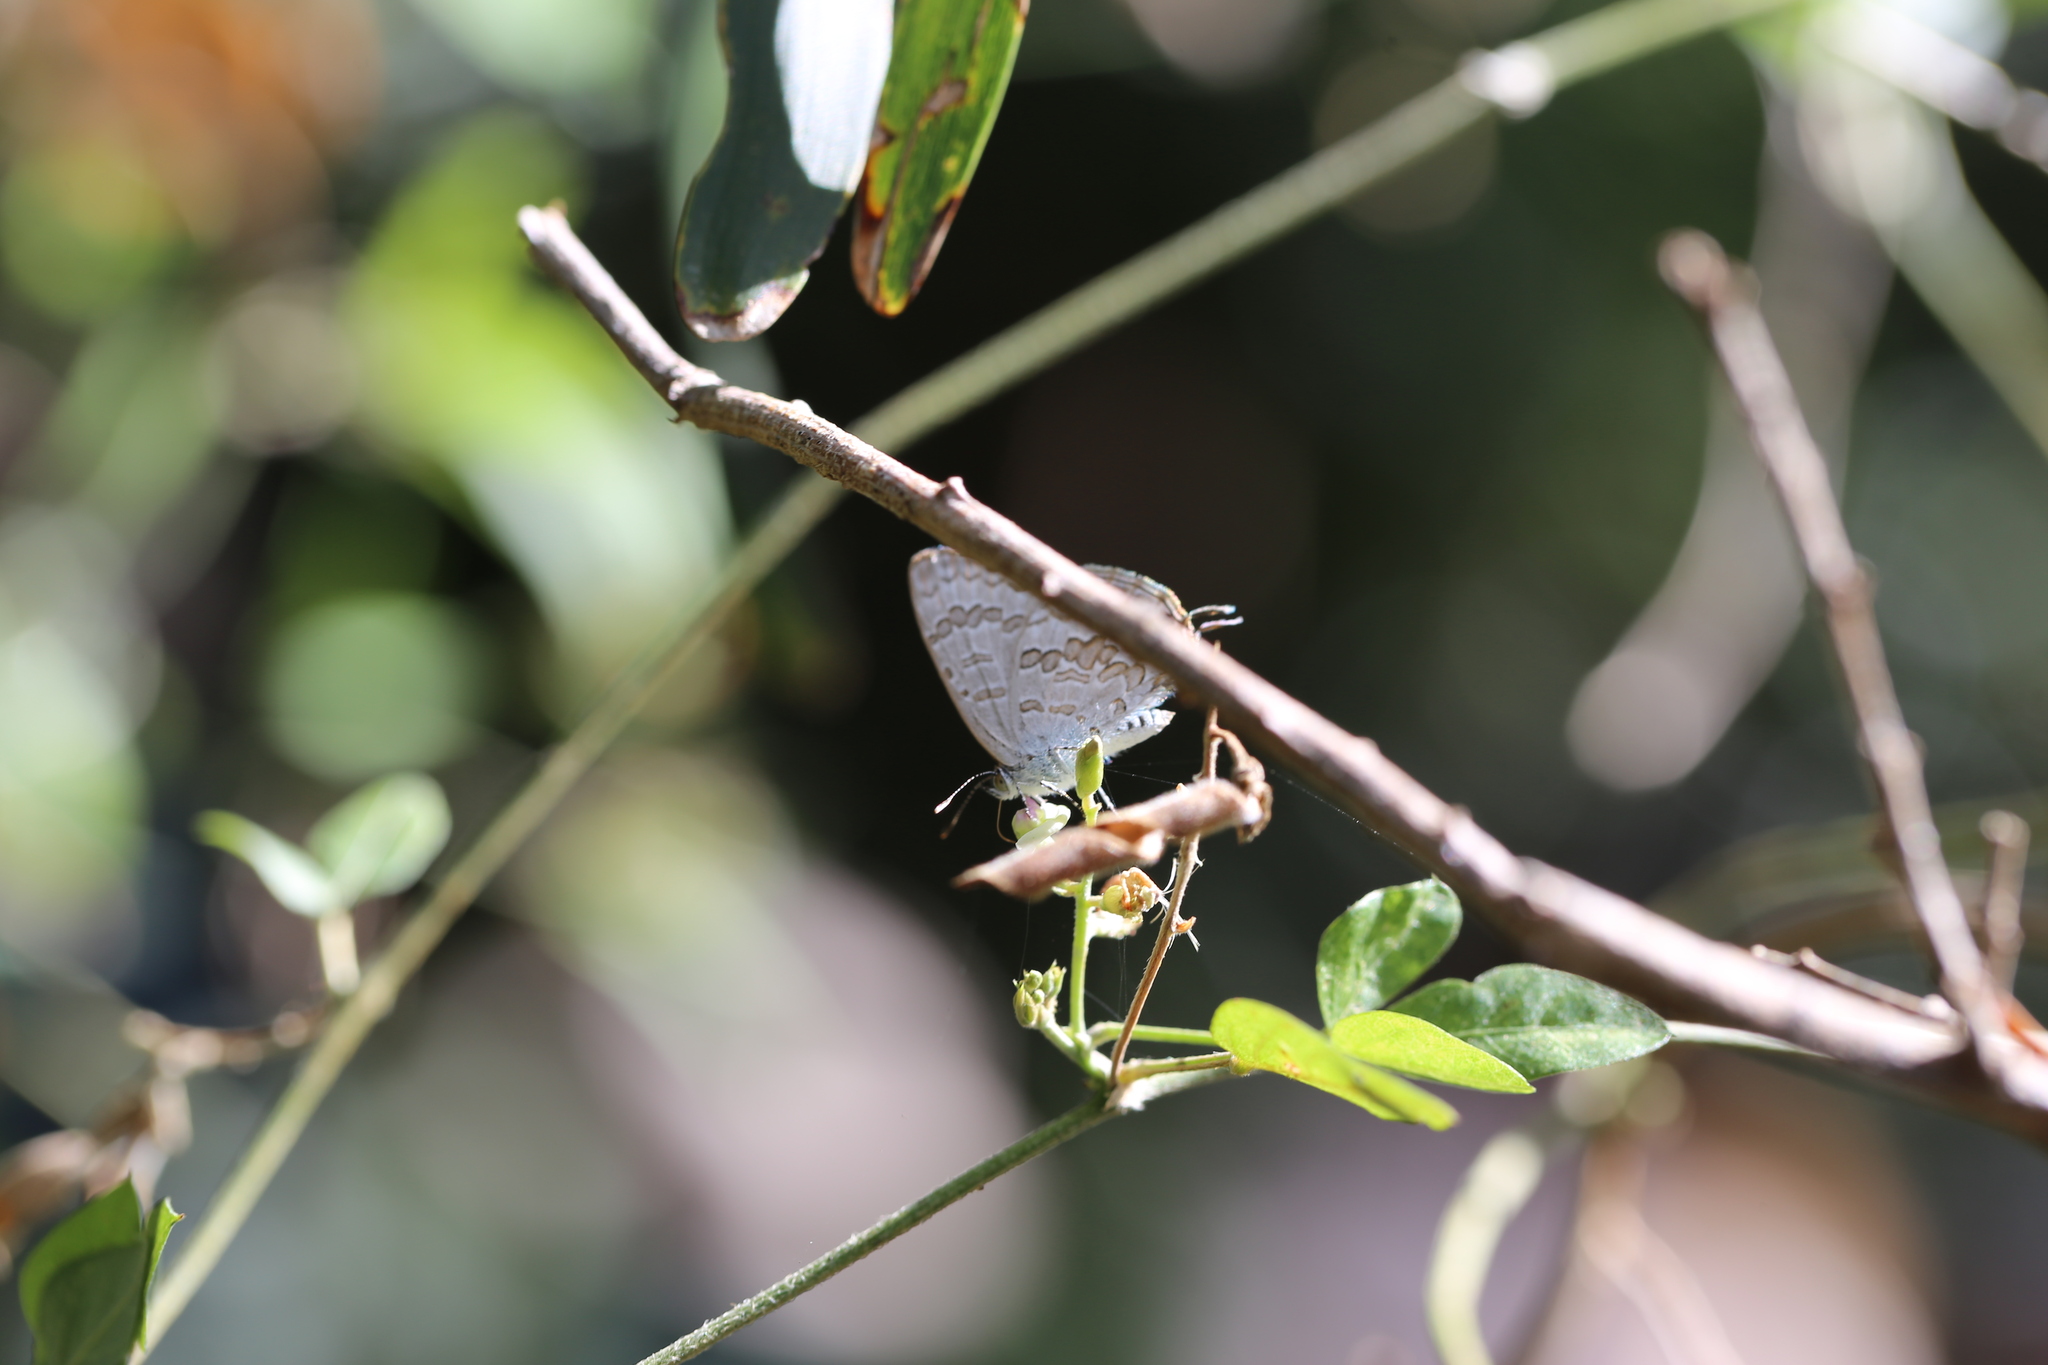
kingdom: Animalia
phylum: Arthropoda
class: Insecta
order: Lepidoptera
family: Lycaenidae
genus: Catopyrops
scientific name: Catopyrops florinda
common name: Speckled line-blue
